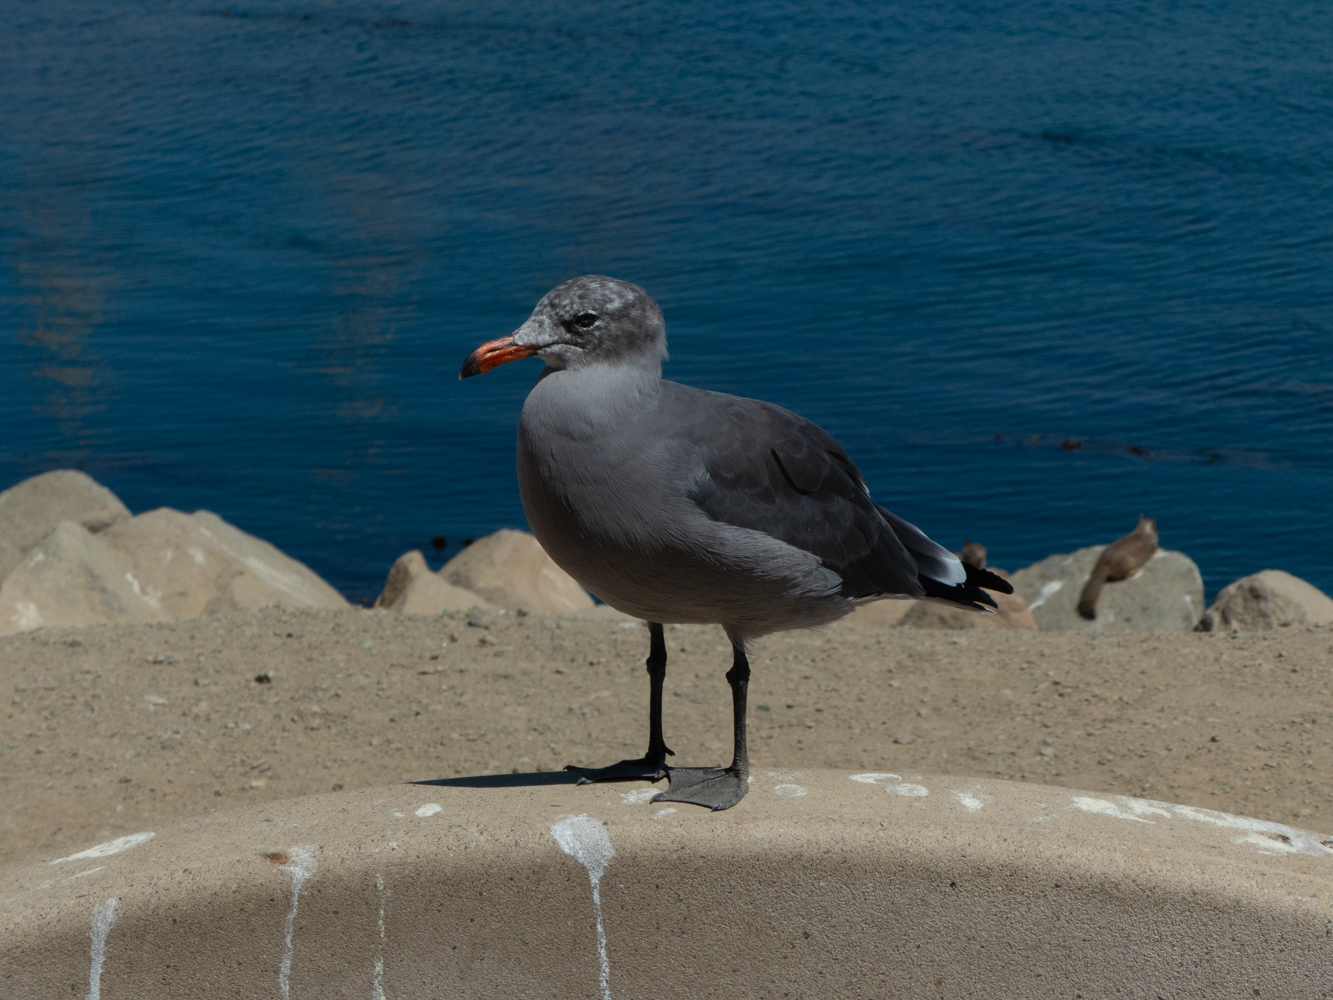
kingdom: Animalia
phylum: Chordata
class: Aves
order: Charadriiformes
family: Laridae
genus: Larus
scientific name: Larus heermanni
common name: Heermann's gull
